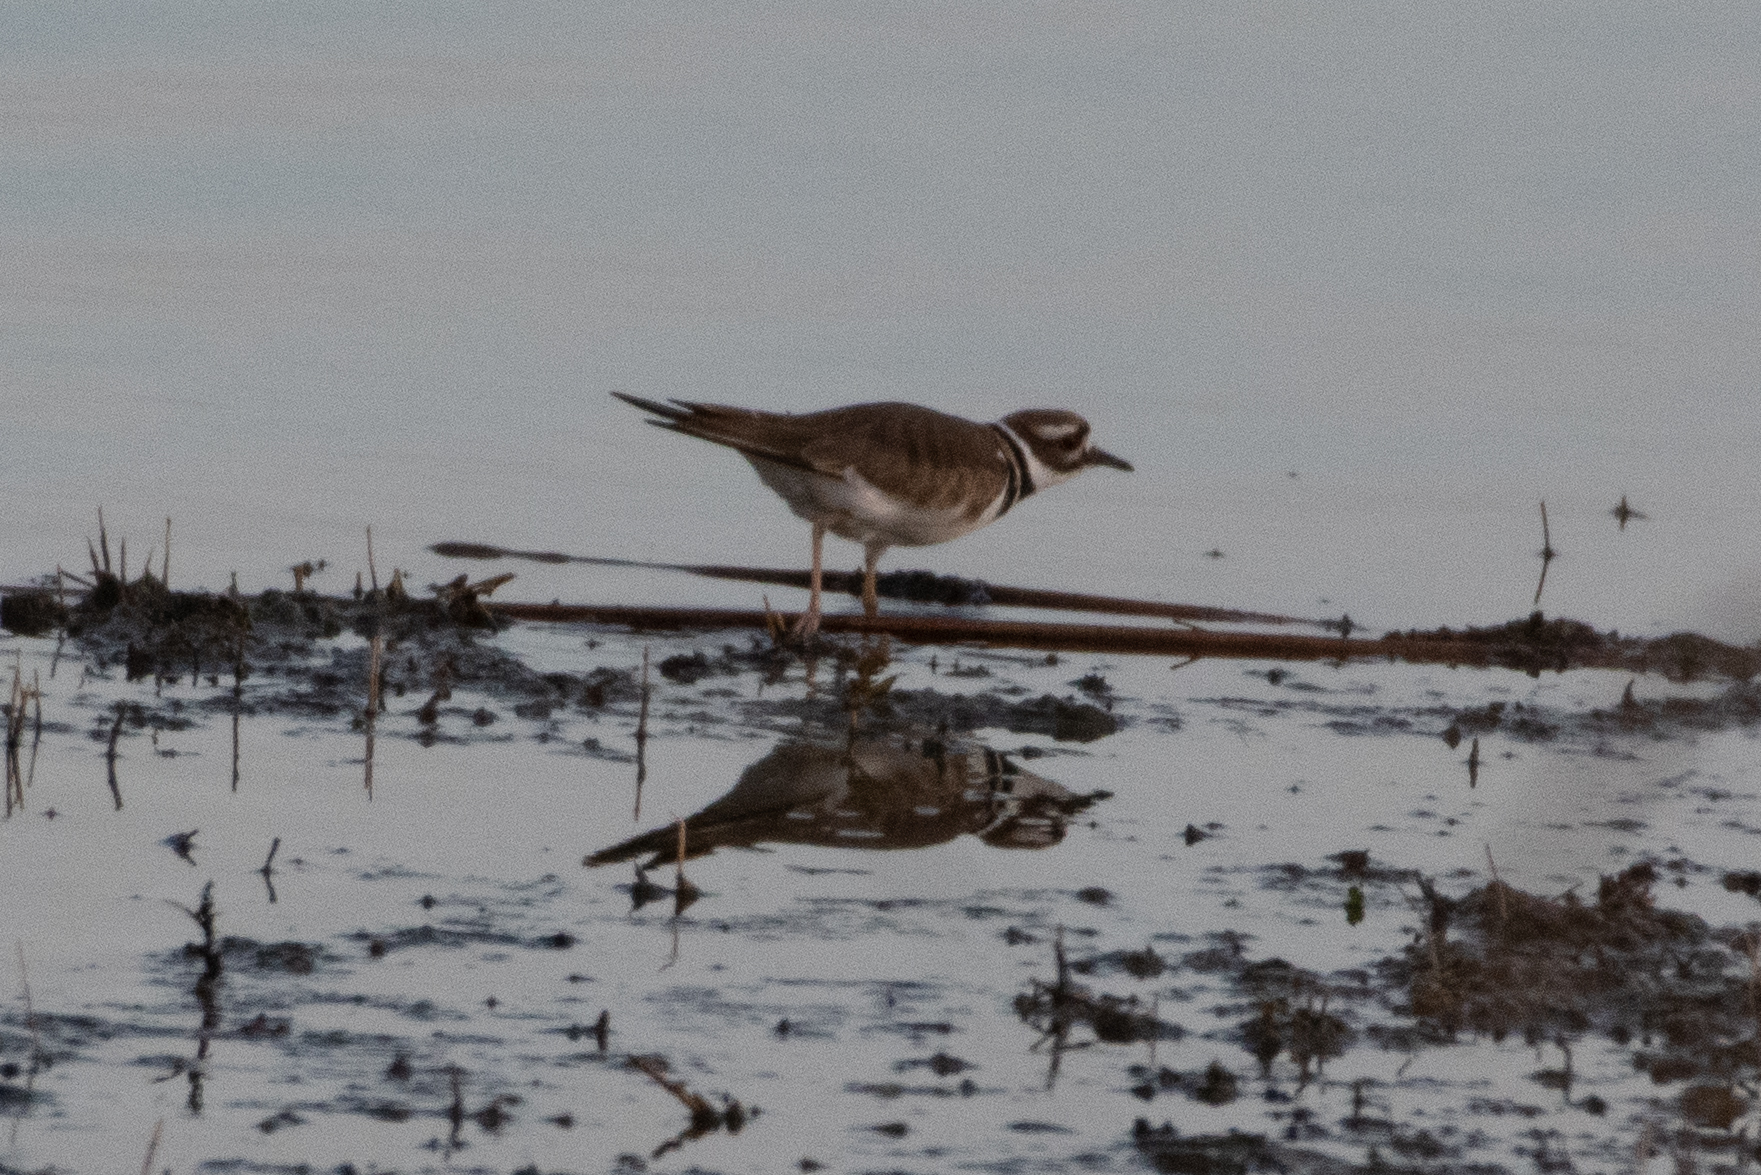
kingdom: Animalia
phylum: Chordata
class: Aves
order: Charadriiformes
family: Charadriidae
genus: Charadrius
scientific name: Charadrius vociferus
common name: Killdeer
